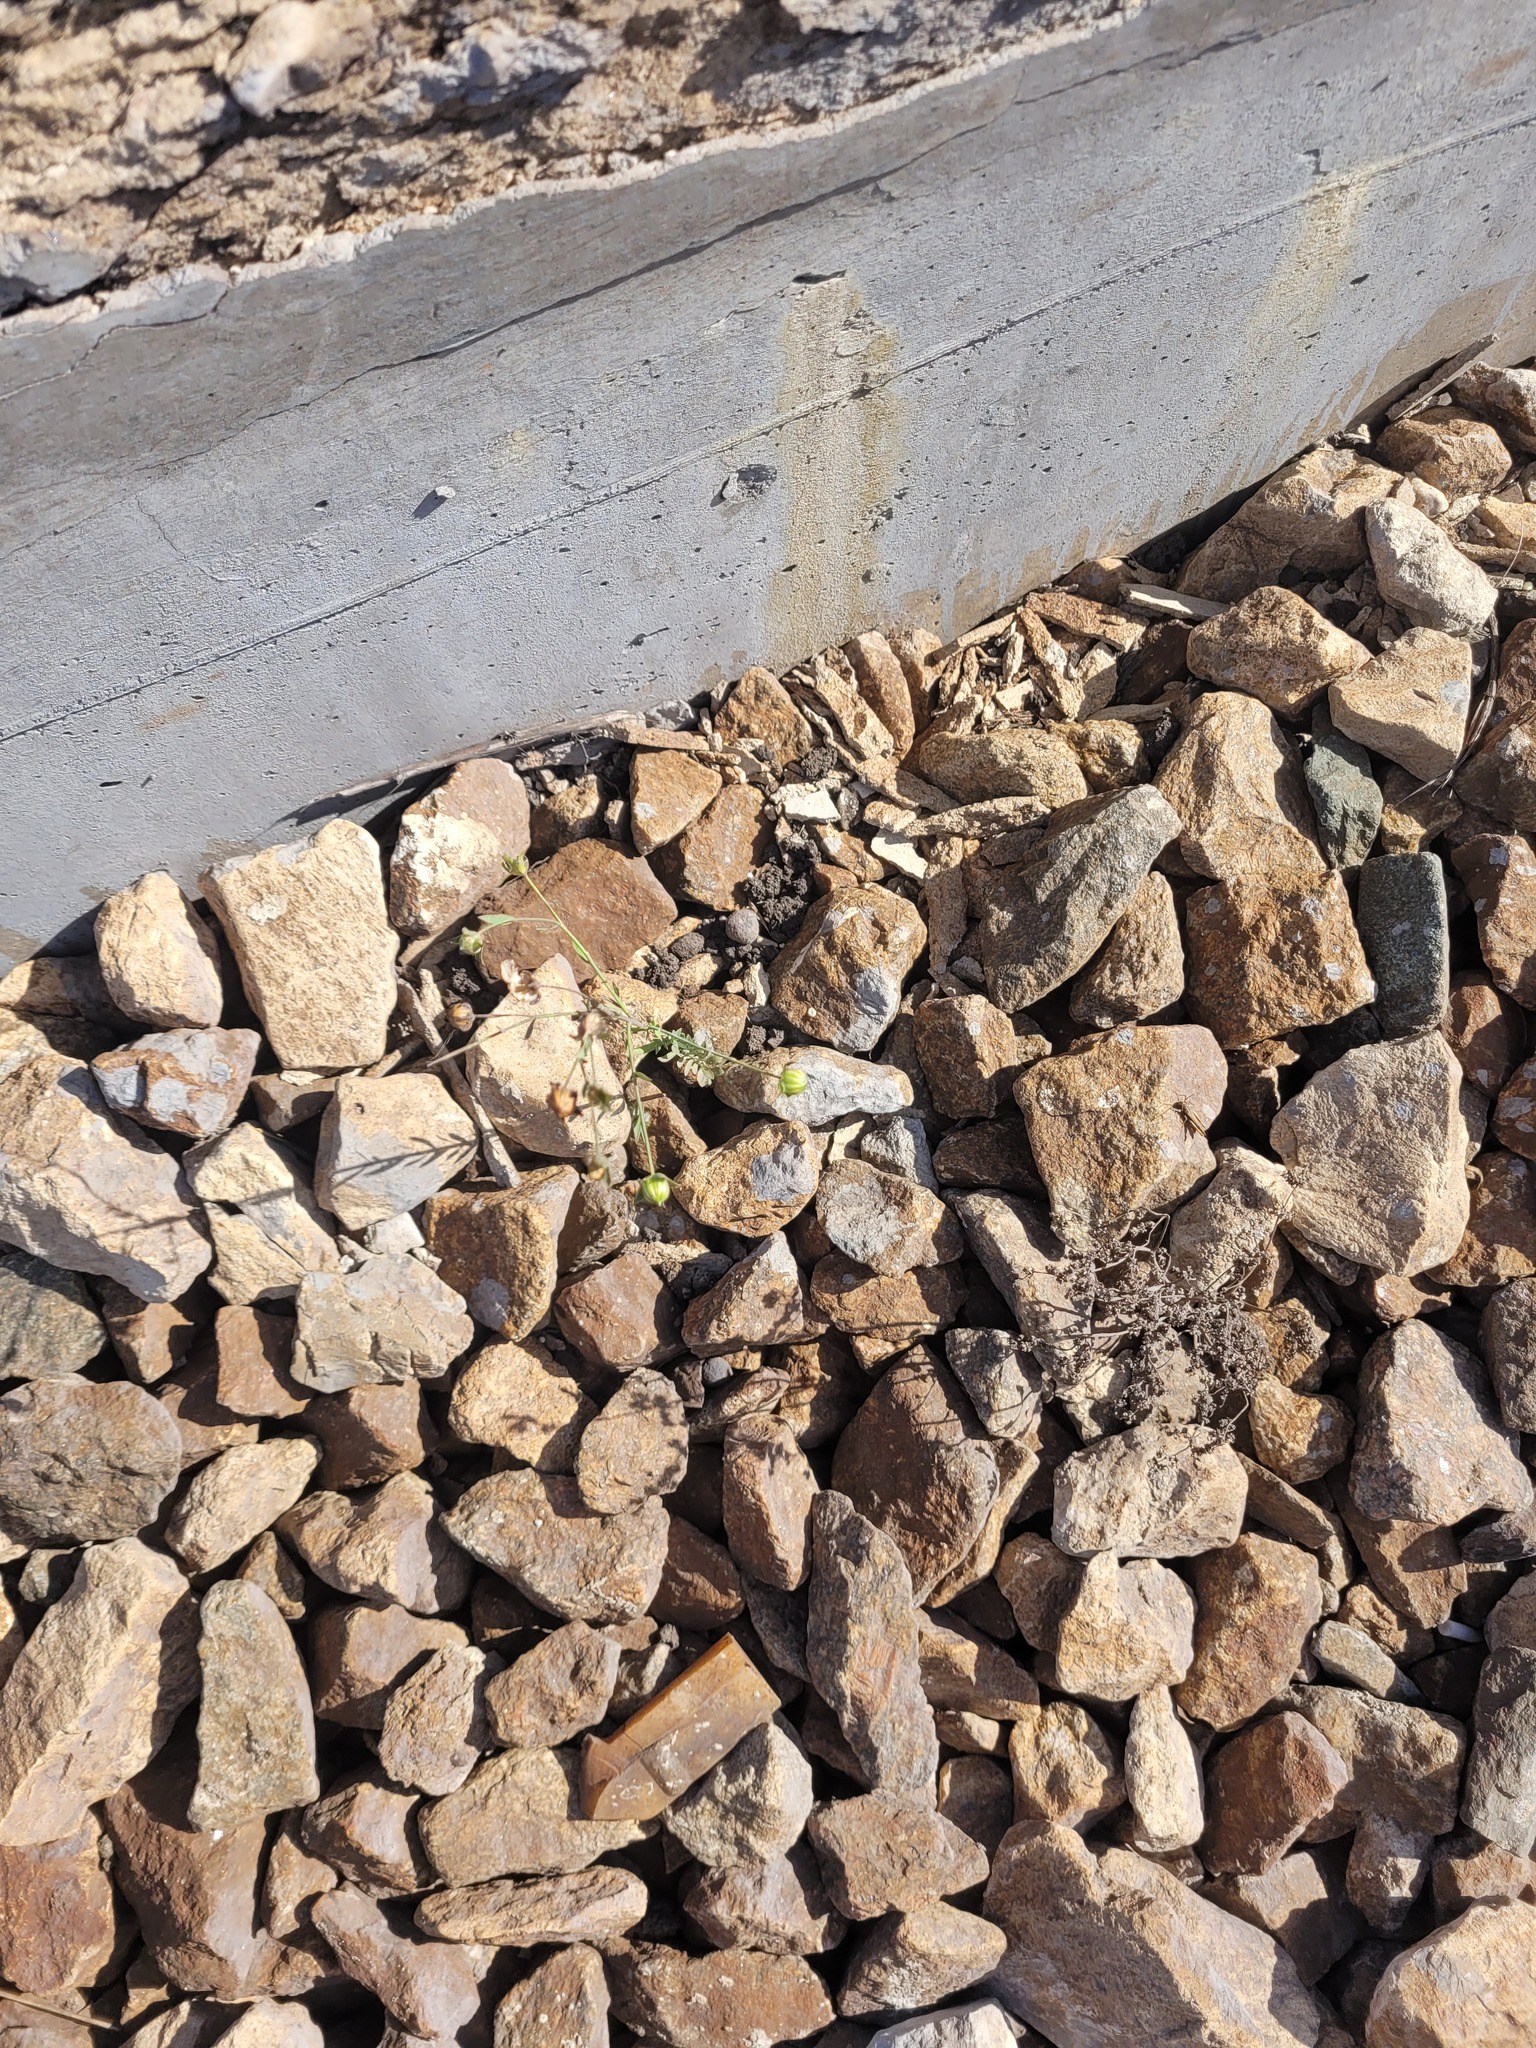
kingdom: Plantae
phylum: Tracheophyta
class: Magnoliopsida
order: Malpighiales
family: Linaceae
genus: Linum
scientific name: Linum usitatissimum
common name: Flax
